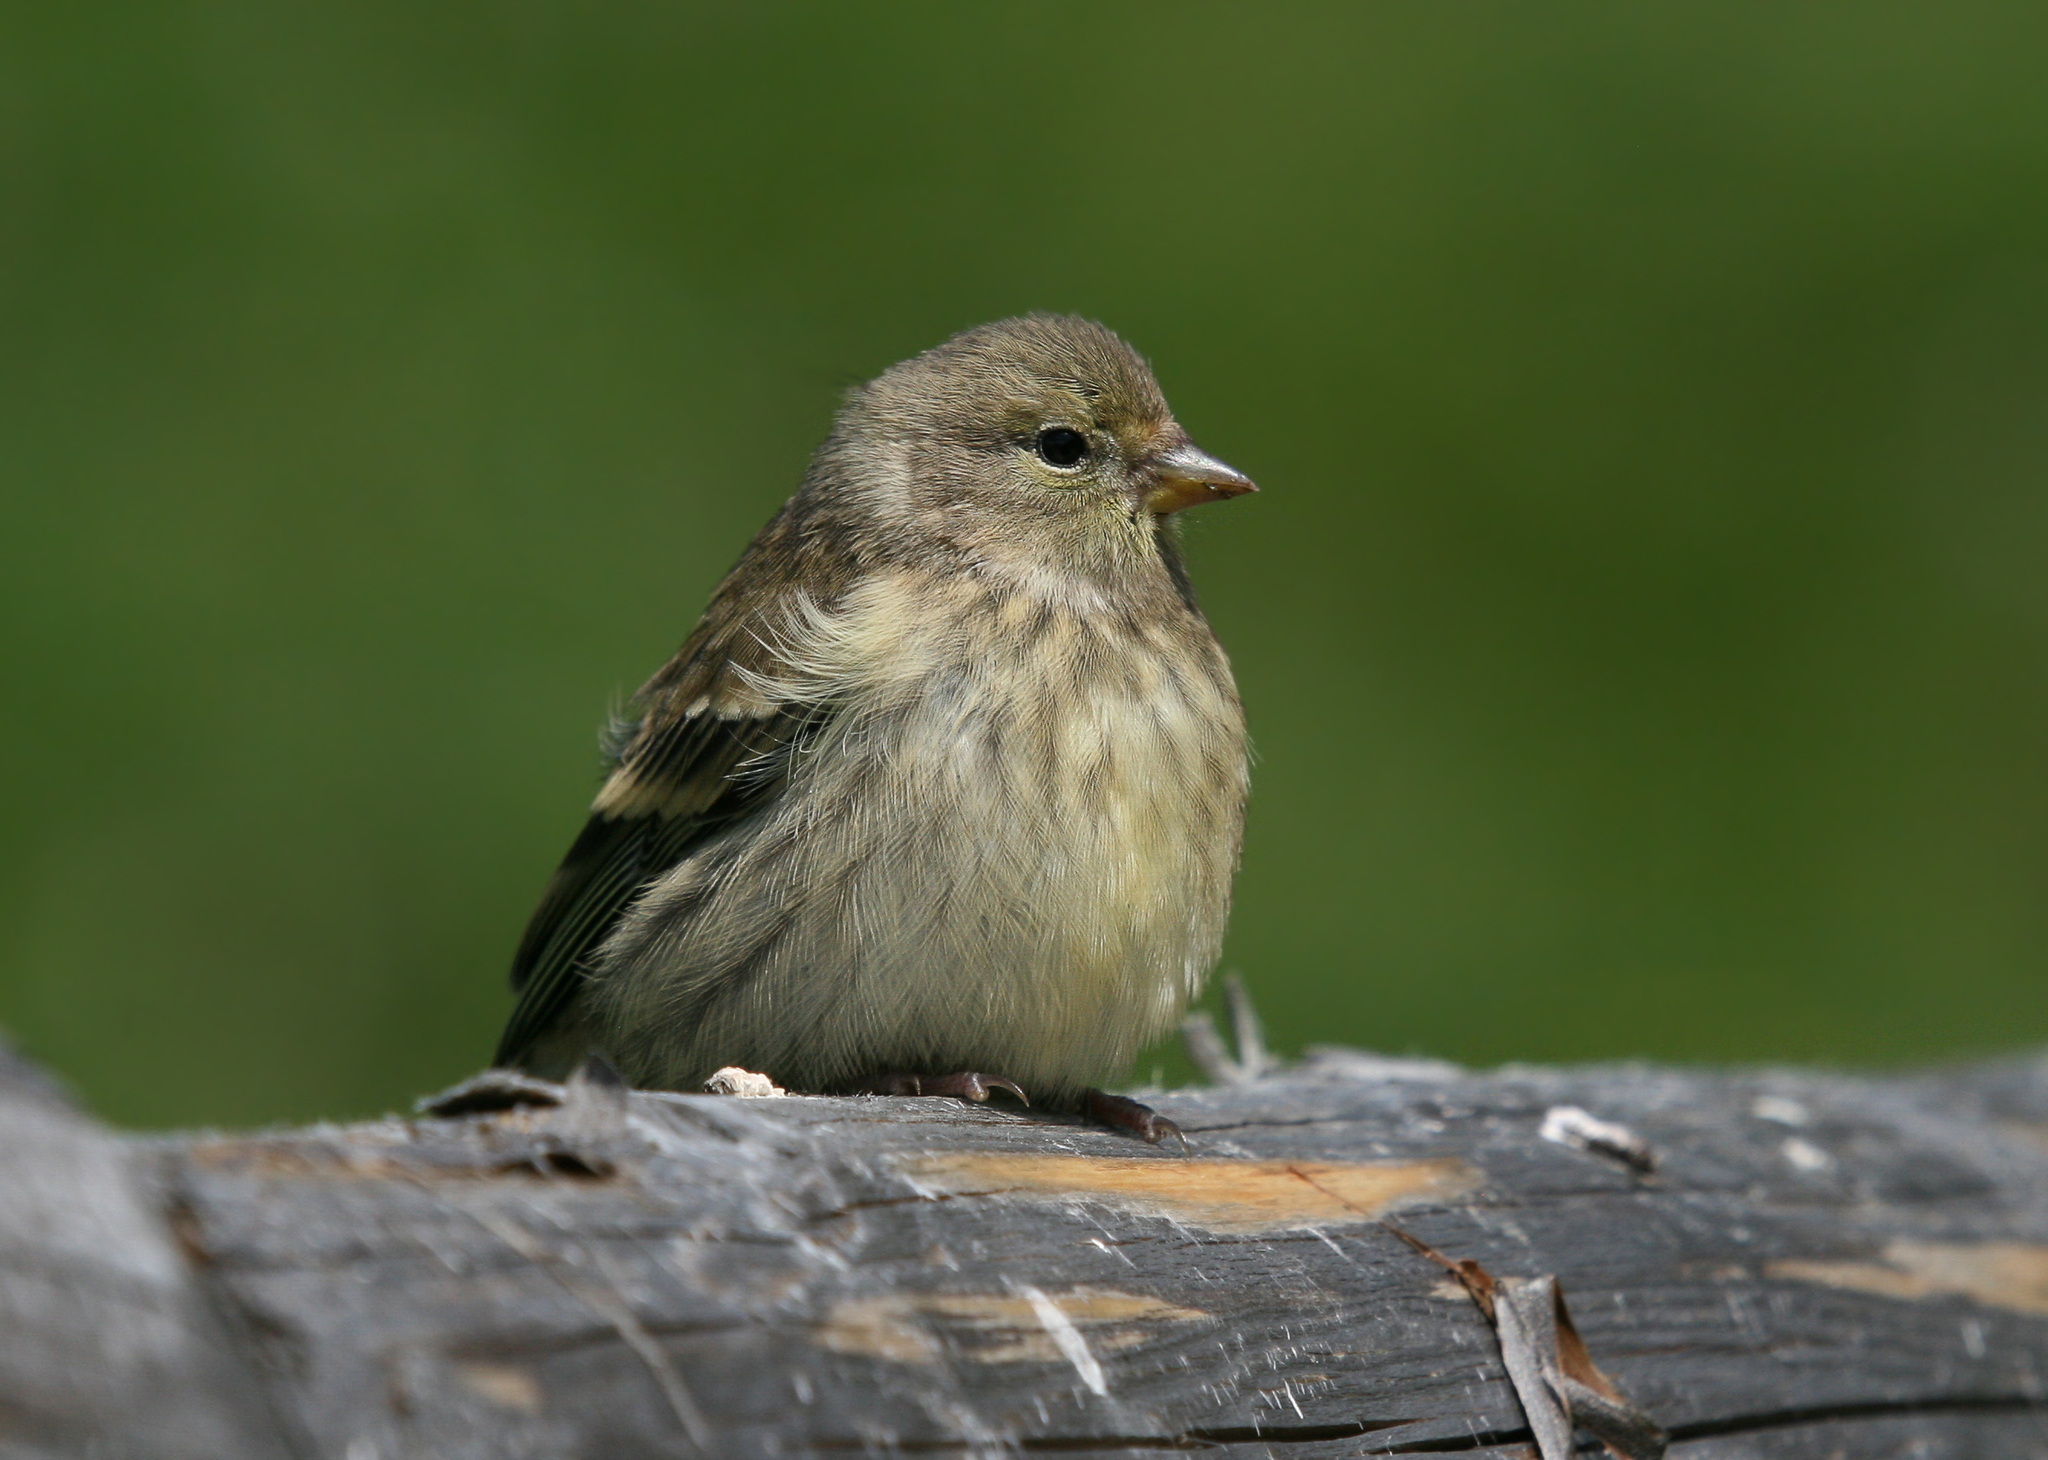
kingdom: Animalia
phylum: Chordata
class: Aves
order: Passeriformes
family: Fringillidae
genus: Carduelis
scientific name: Carduelis citrinella
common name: Citril finch
